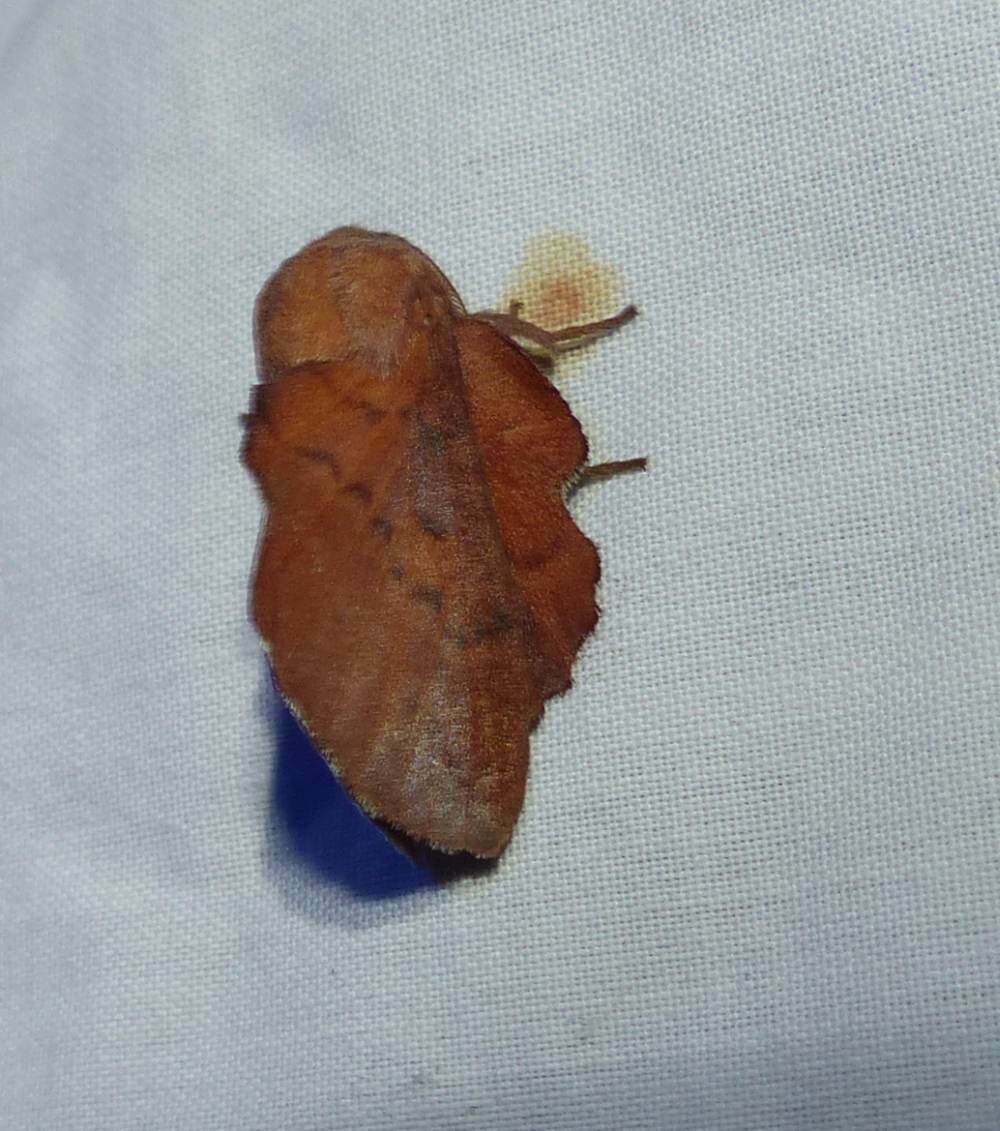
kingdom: Animalia
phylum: Arthropoda
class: Insecta
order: Lepidoptera
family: Lasiocampidae
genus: Phyllodesma
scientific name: Phyllodesma americana
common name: American lappet moth
